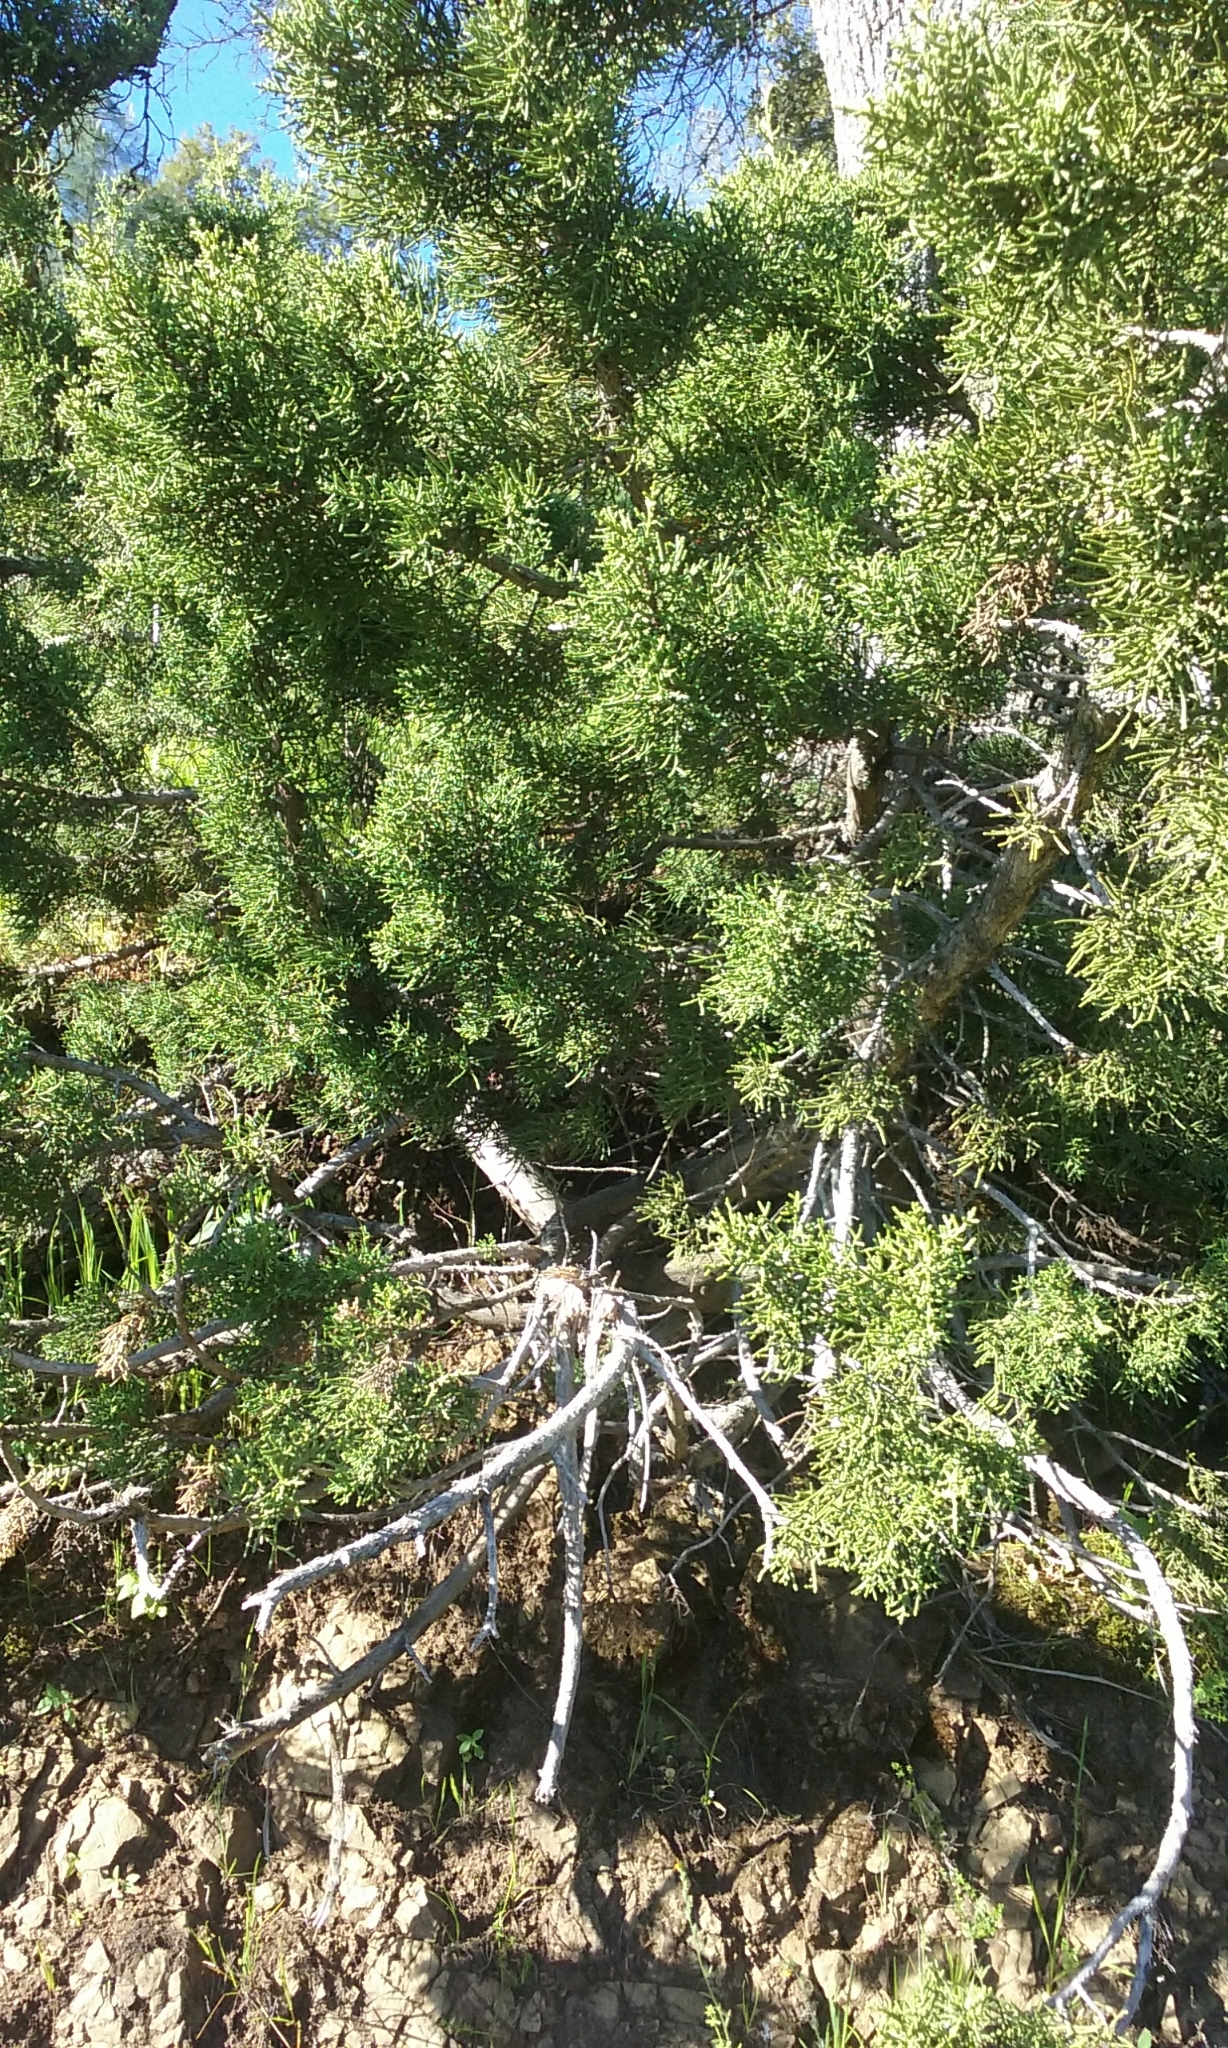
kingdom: Plantae
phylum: Tracheophyta
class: Pinopsida
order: Pinales
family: Cupressaceae
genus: Juniperus
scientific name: Juniperus californica
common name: California juniper
